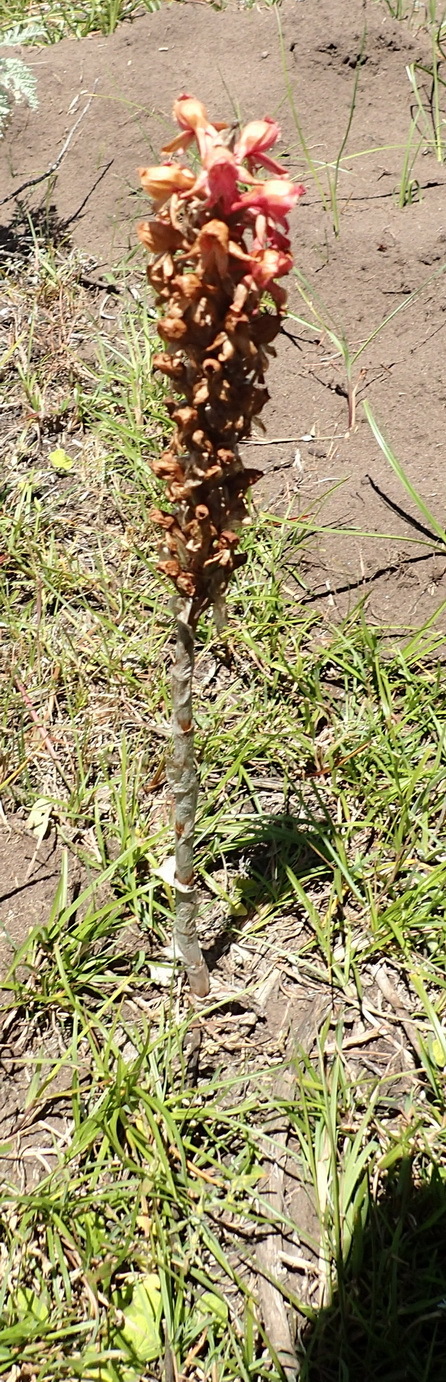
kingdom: Plantae
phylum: Tracheophyta
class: Liliopsida
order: Asparagales
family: Orchidaceae
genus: Satyrium
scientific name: Satyrium princeps
